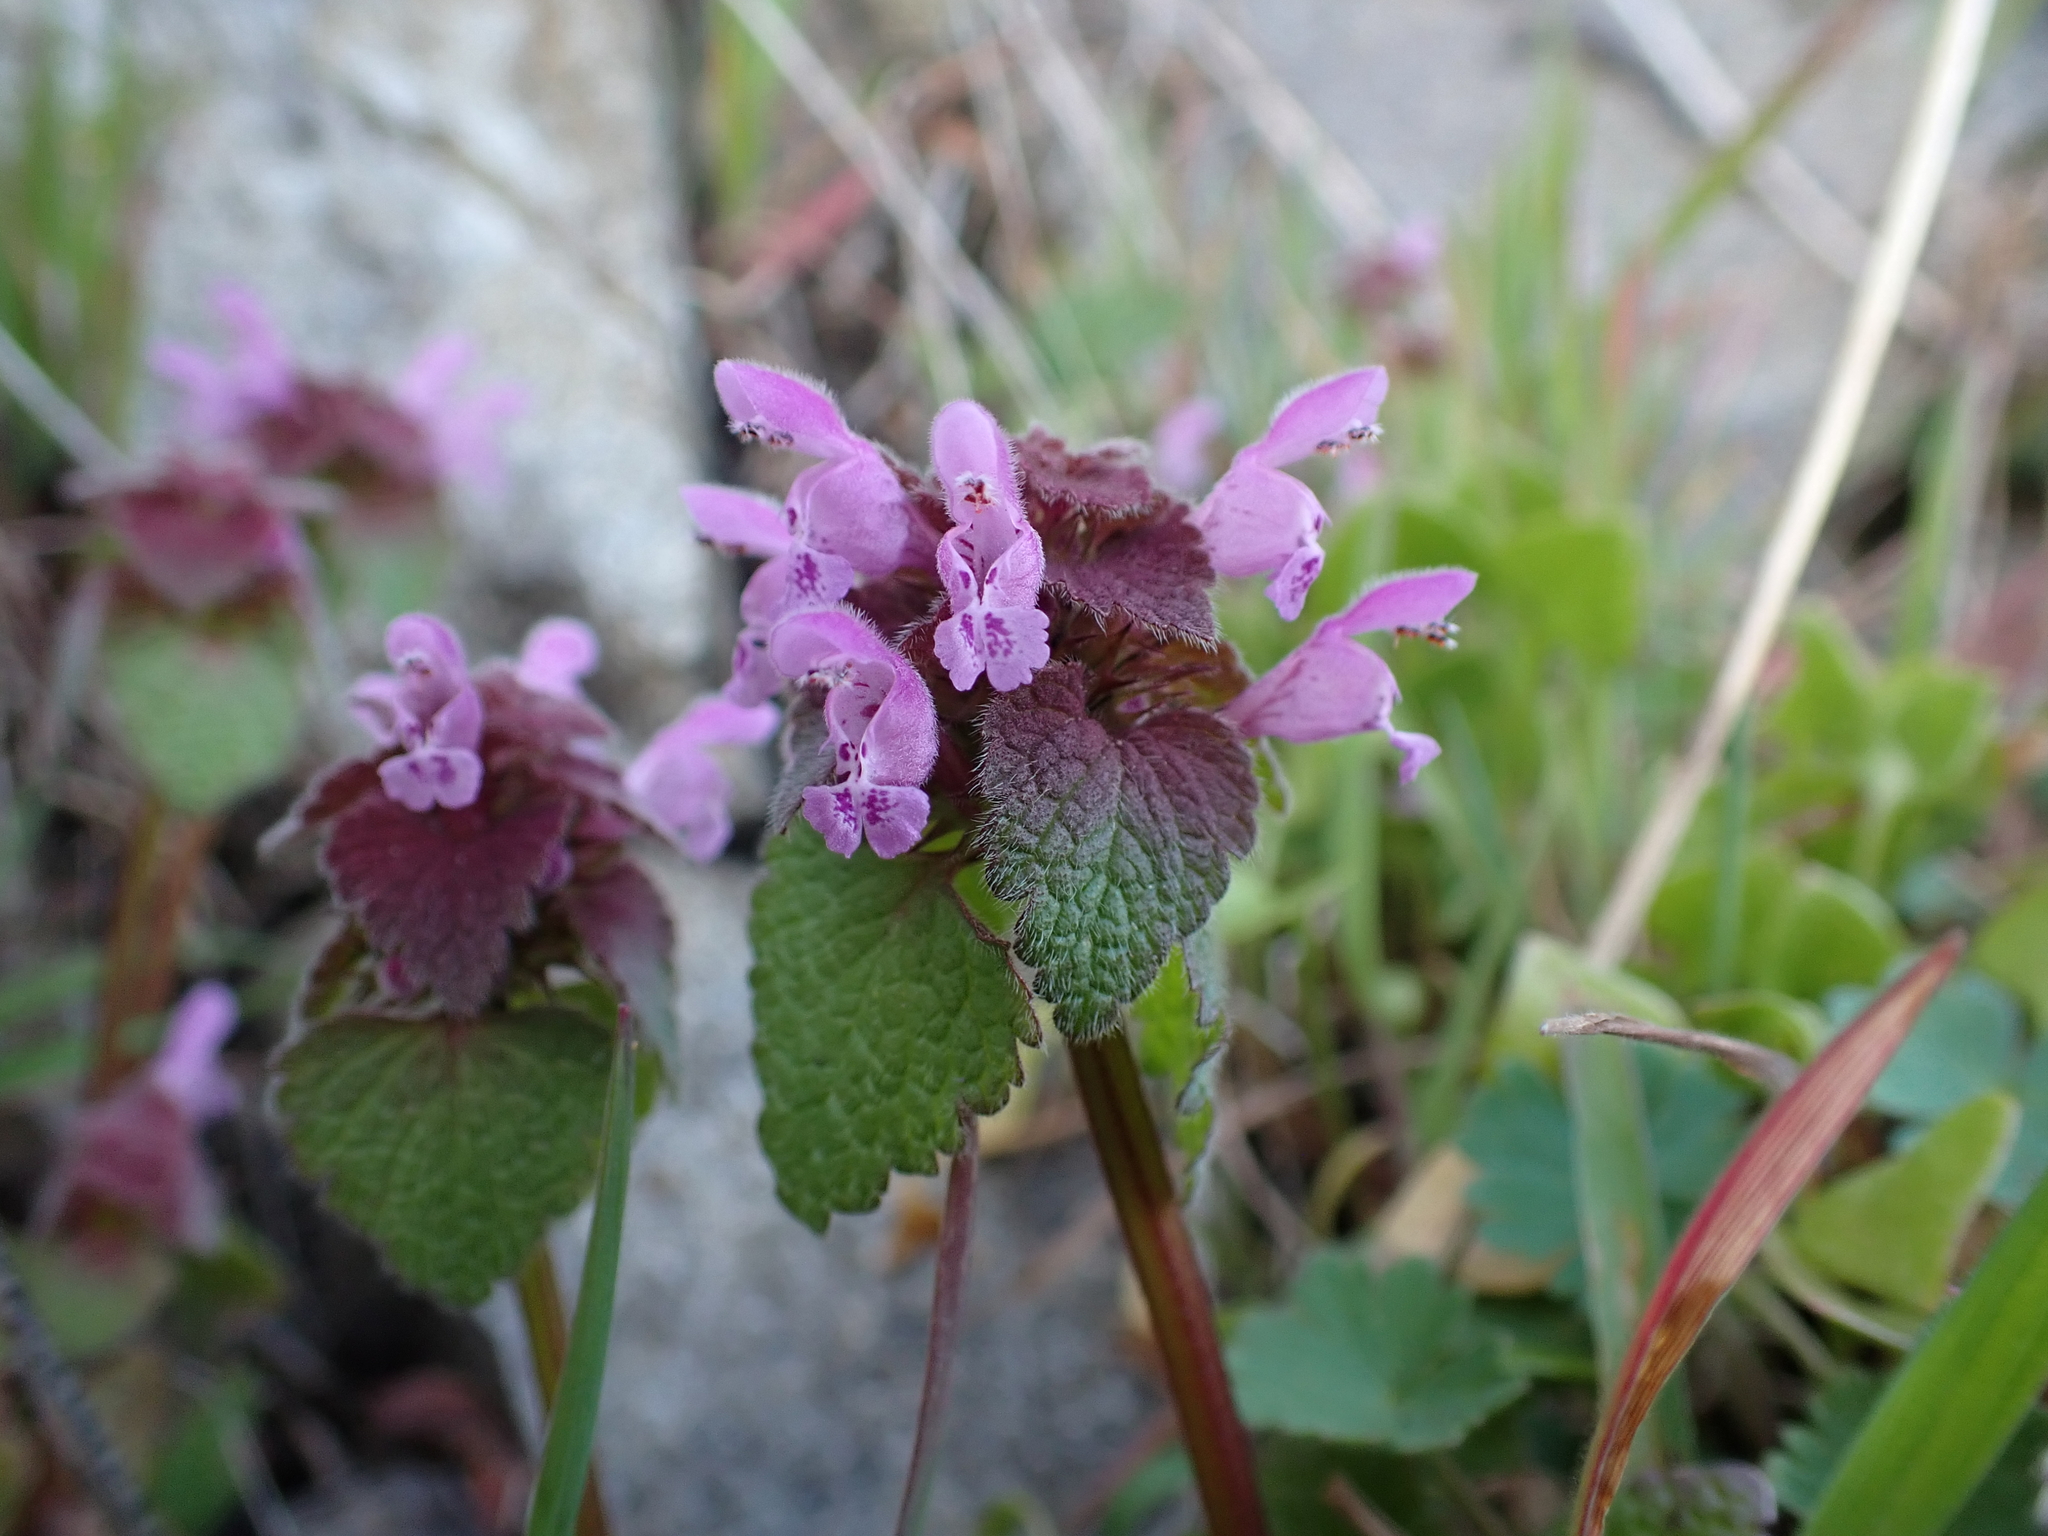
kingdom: Plantae
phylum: Tracheophyta
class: Magnoliopsida
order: Lamiales
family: Lamiaceae
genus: Lamium
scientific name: Lamium purpureum
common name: Red dead-nettle
